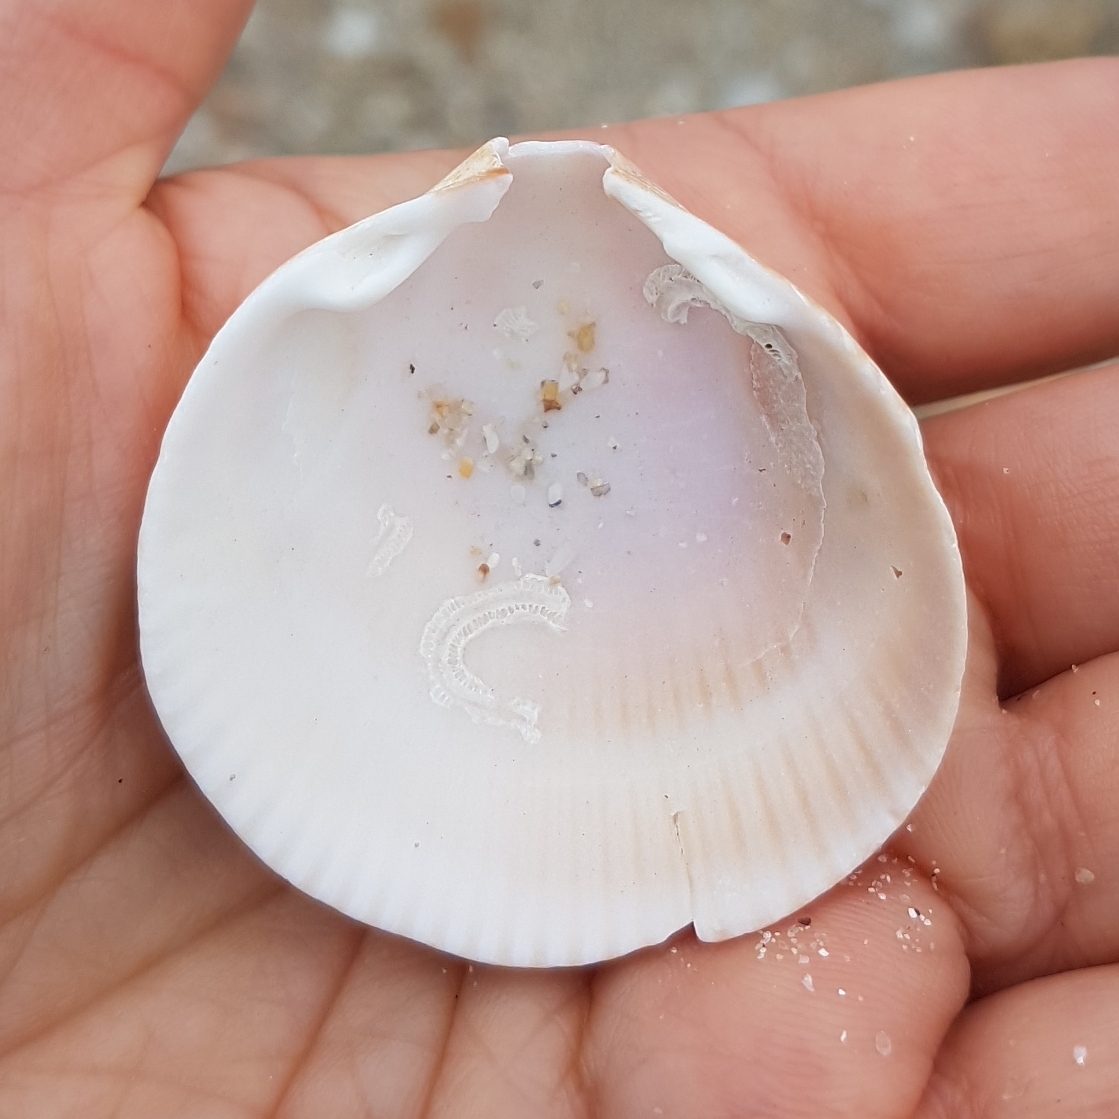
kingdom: Animalia
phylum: Mollusca
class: Bivalvia
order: Cardiida
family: Cardiidae
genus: Laevicardium
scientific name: Laevicardium crassum
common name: Norway cockle
